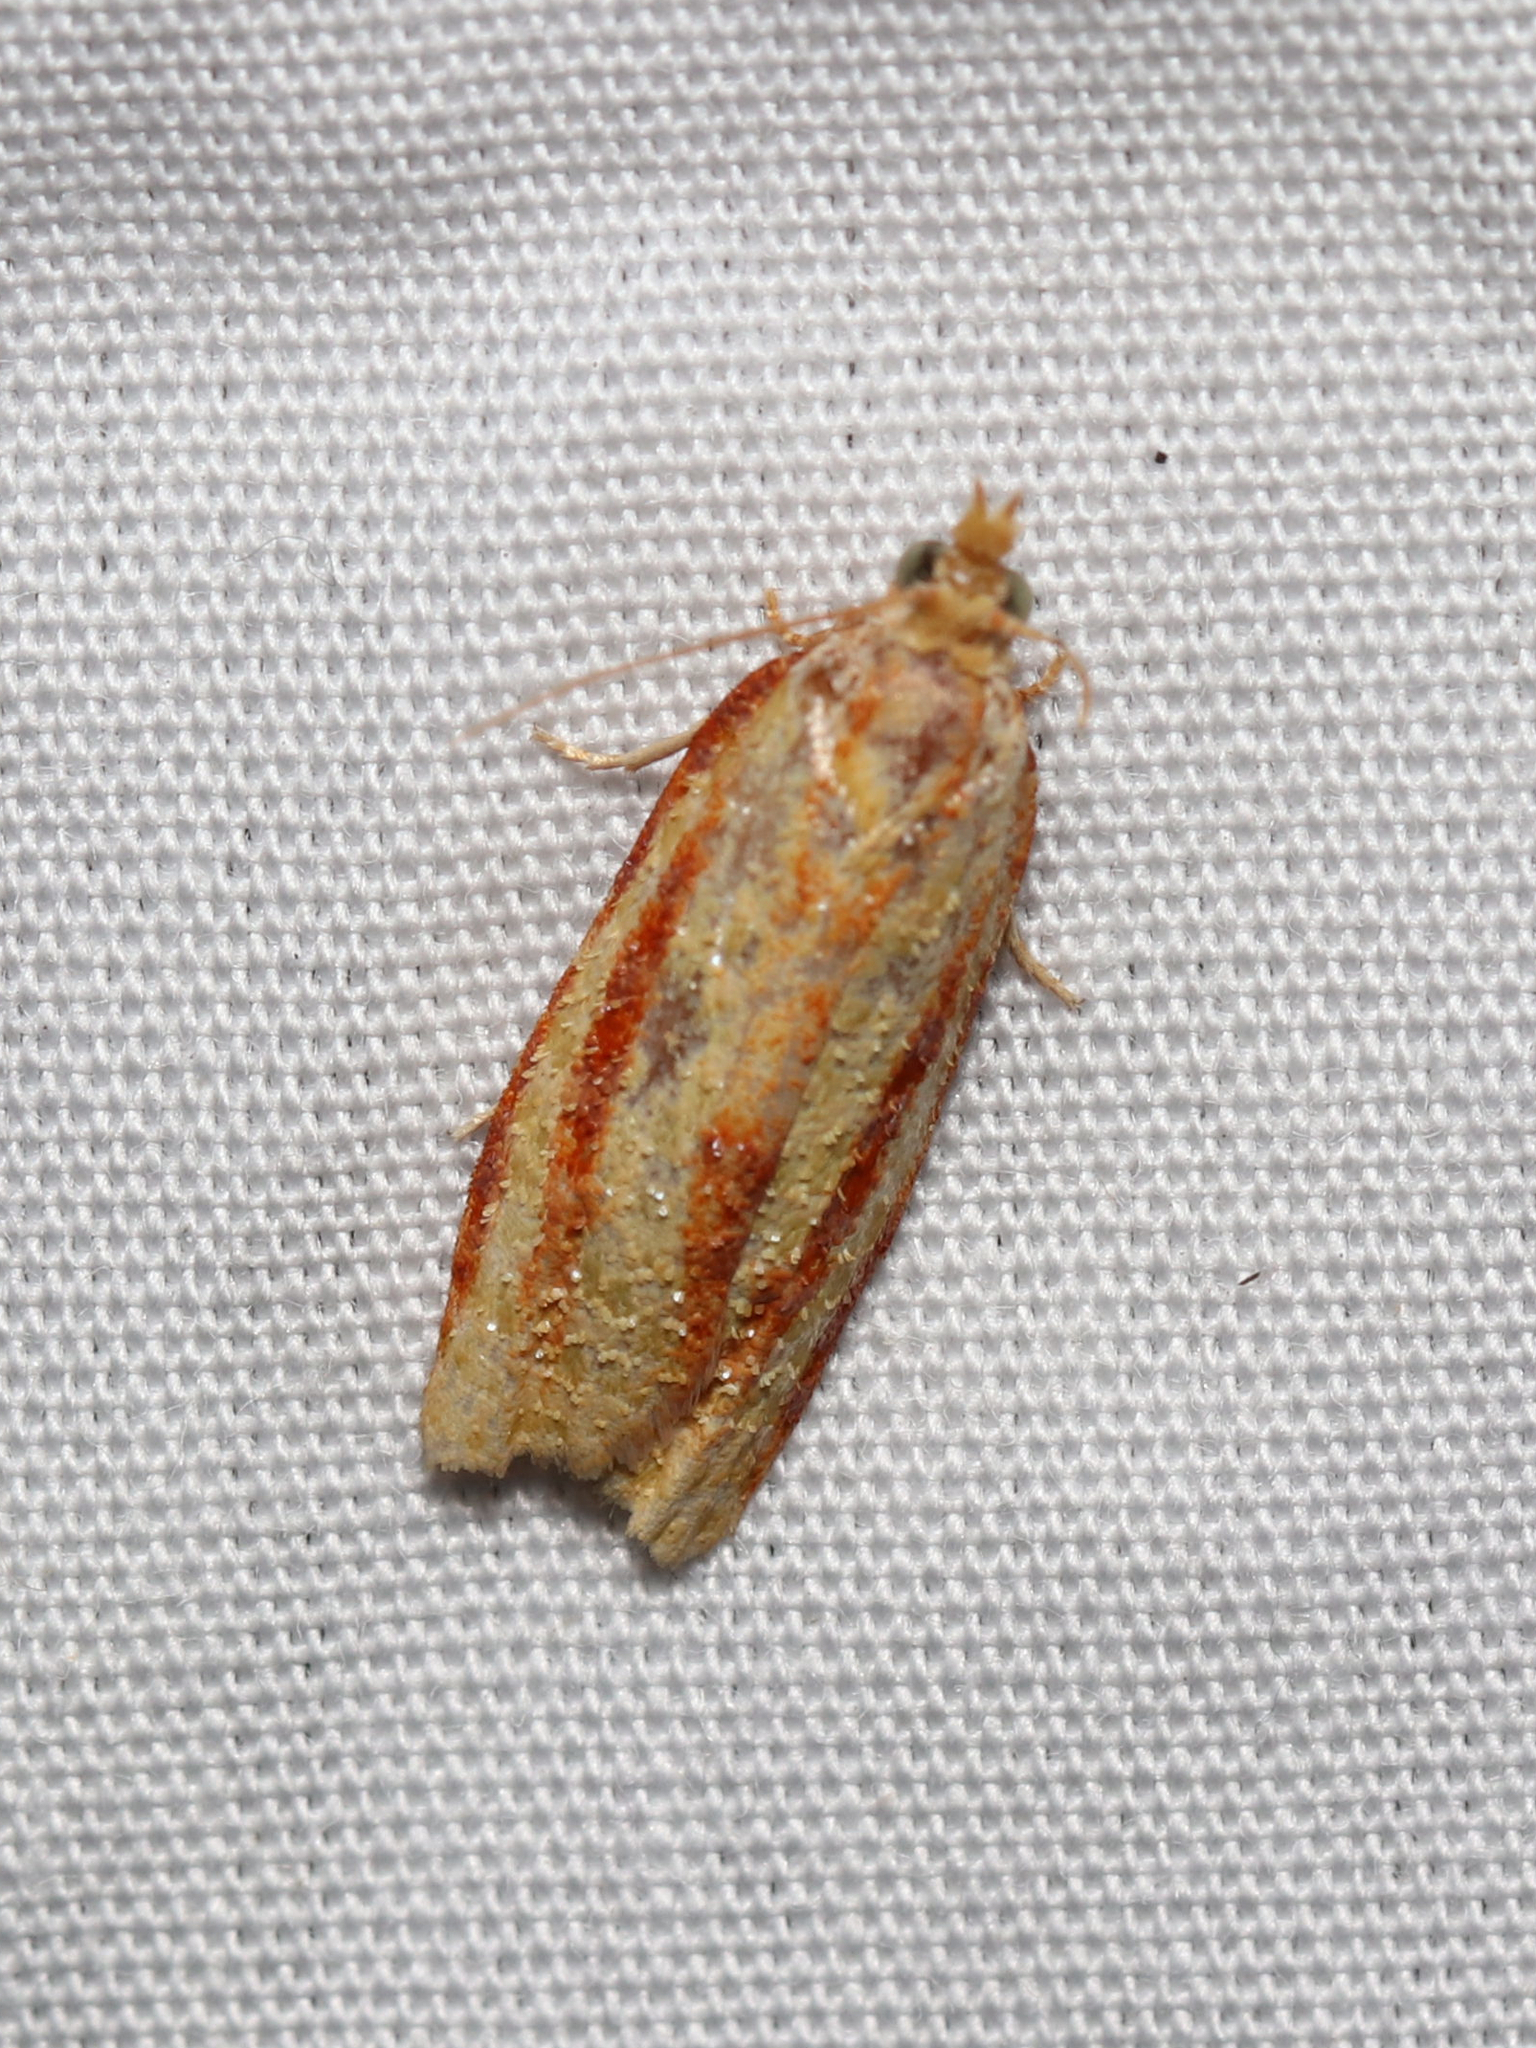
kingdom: Animalia
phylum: Arthropoda
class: Insecta
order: Lepidoptera
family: Tortricidae
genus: Sparganothis
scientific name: Sparganothis tristriata
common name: Three-streaked sparganothis moth
